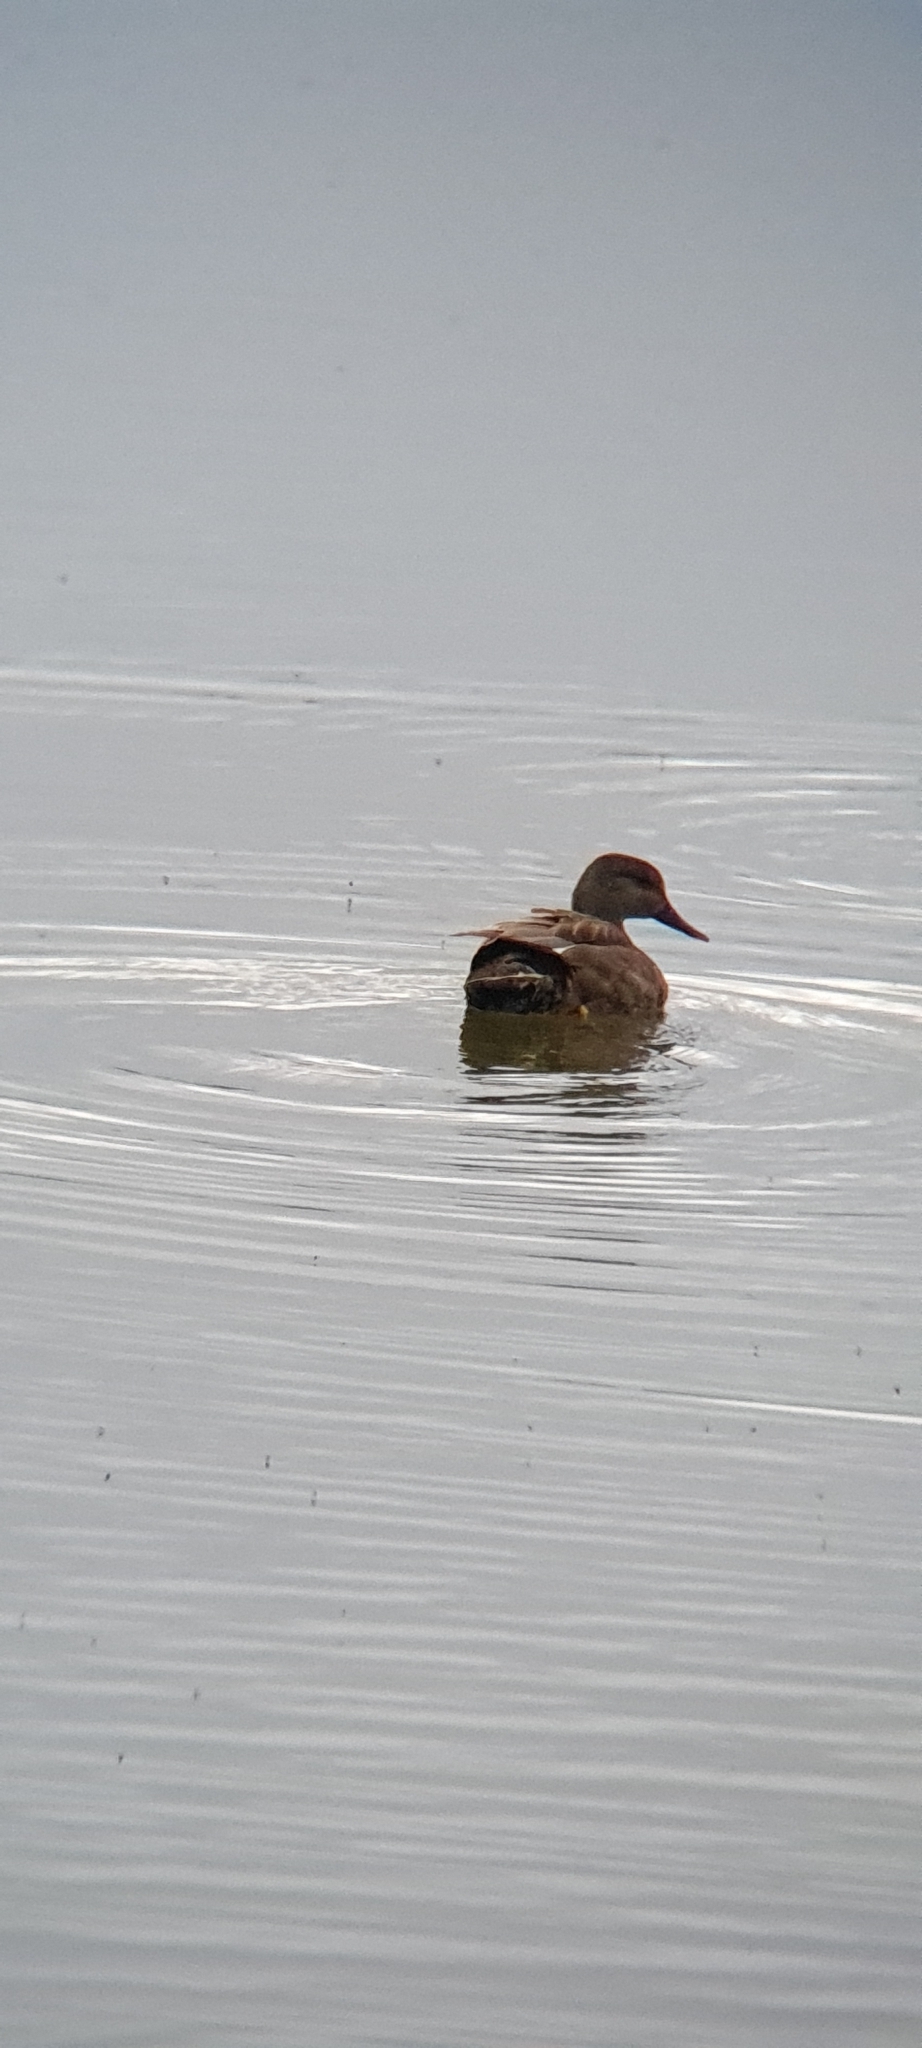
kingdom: Animalia
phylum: Chordata
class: Aves
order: Anseriformes
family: Anatidae
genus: Mareca
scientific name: Mareca strepera
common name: Gadwall
